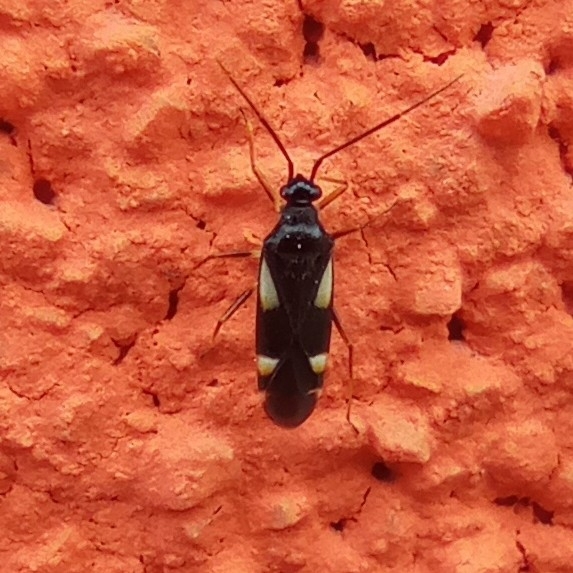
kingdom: Animalia
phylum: Arthropoda
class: Insecta
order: Hemiptera
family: Miridae
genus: Dryophilocoris
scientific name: Dryophilocoris flavoquadrimaculatus
